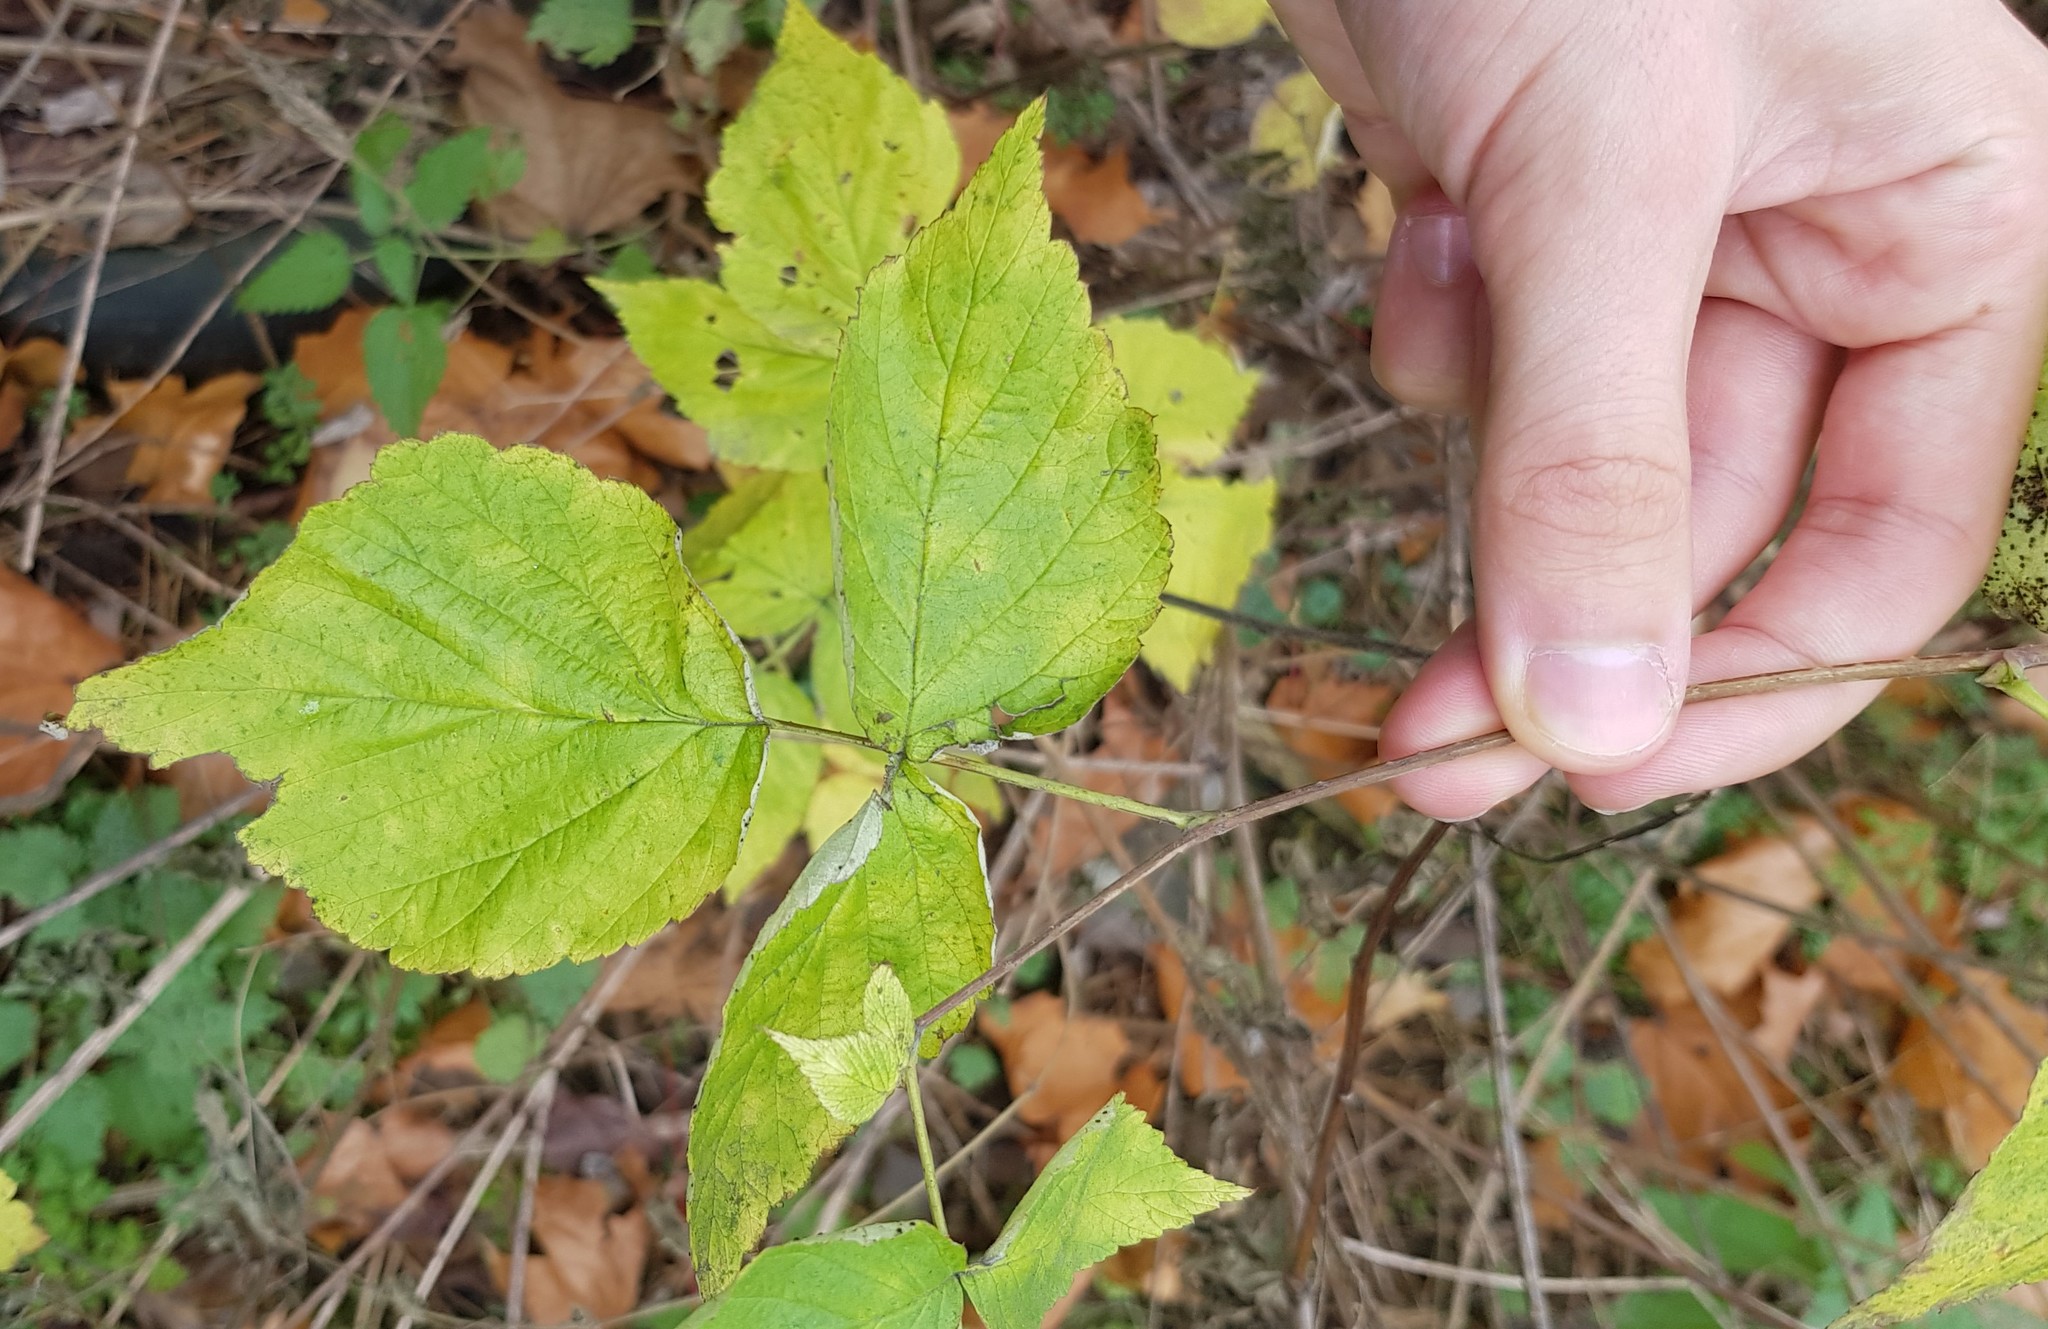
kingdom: Plantae
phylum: Tracheophyta
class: Magnoliopsida
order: Rosales
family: Rosaceae
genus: Rubus
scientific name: Rubus idaeus
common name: Raspberry
